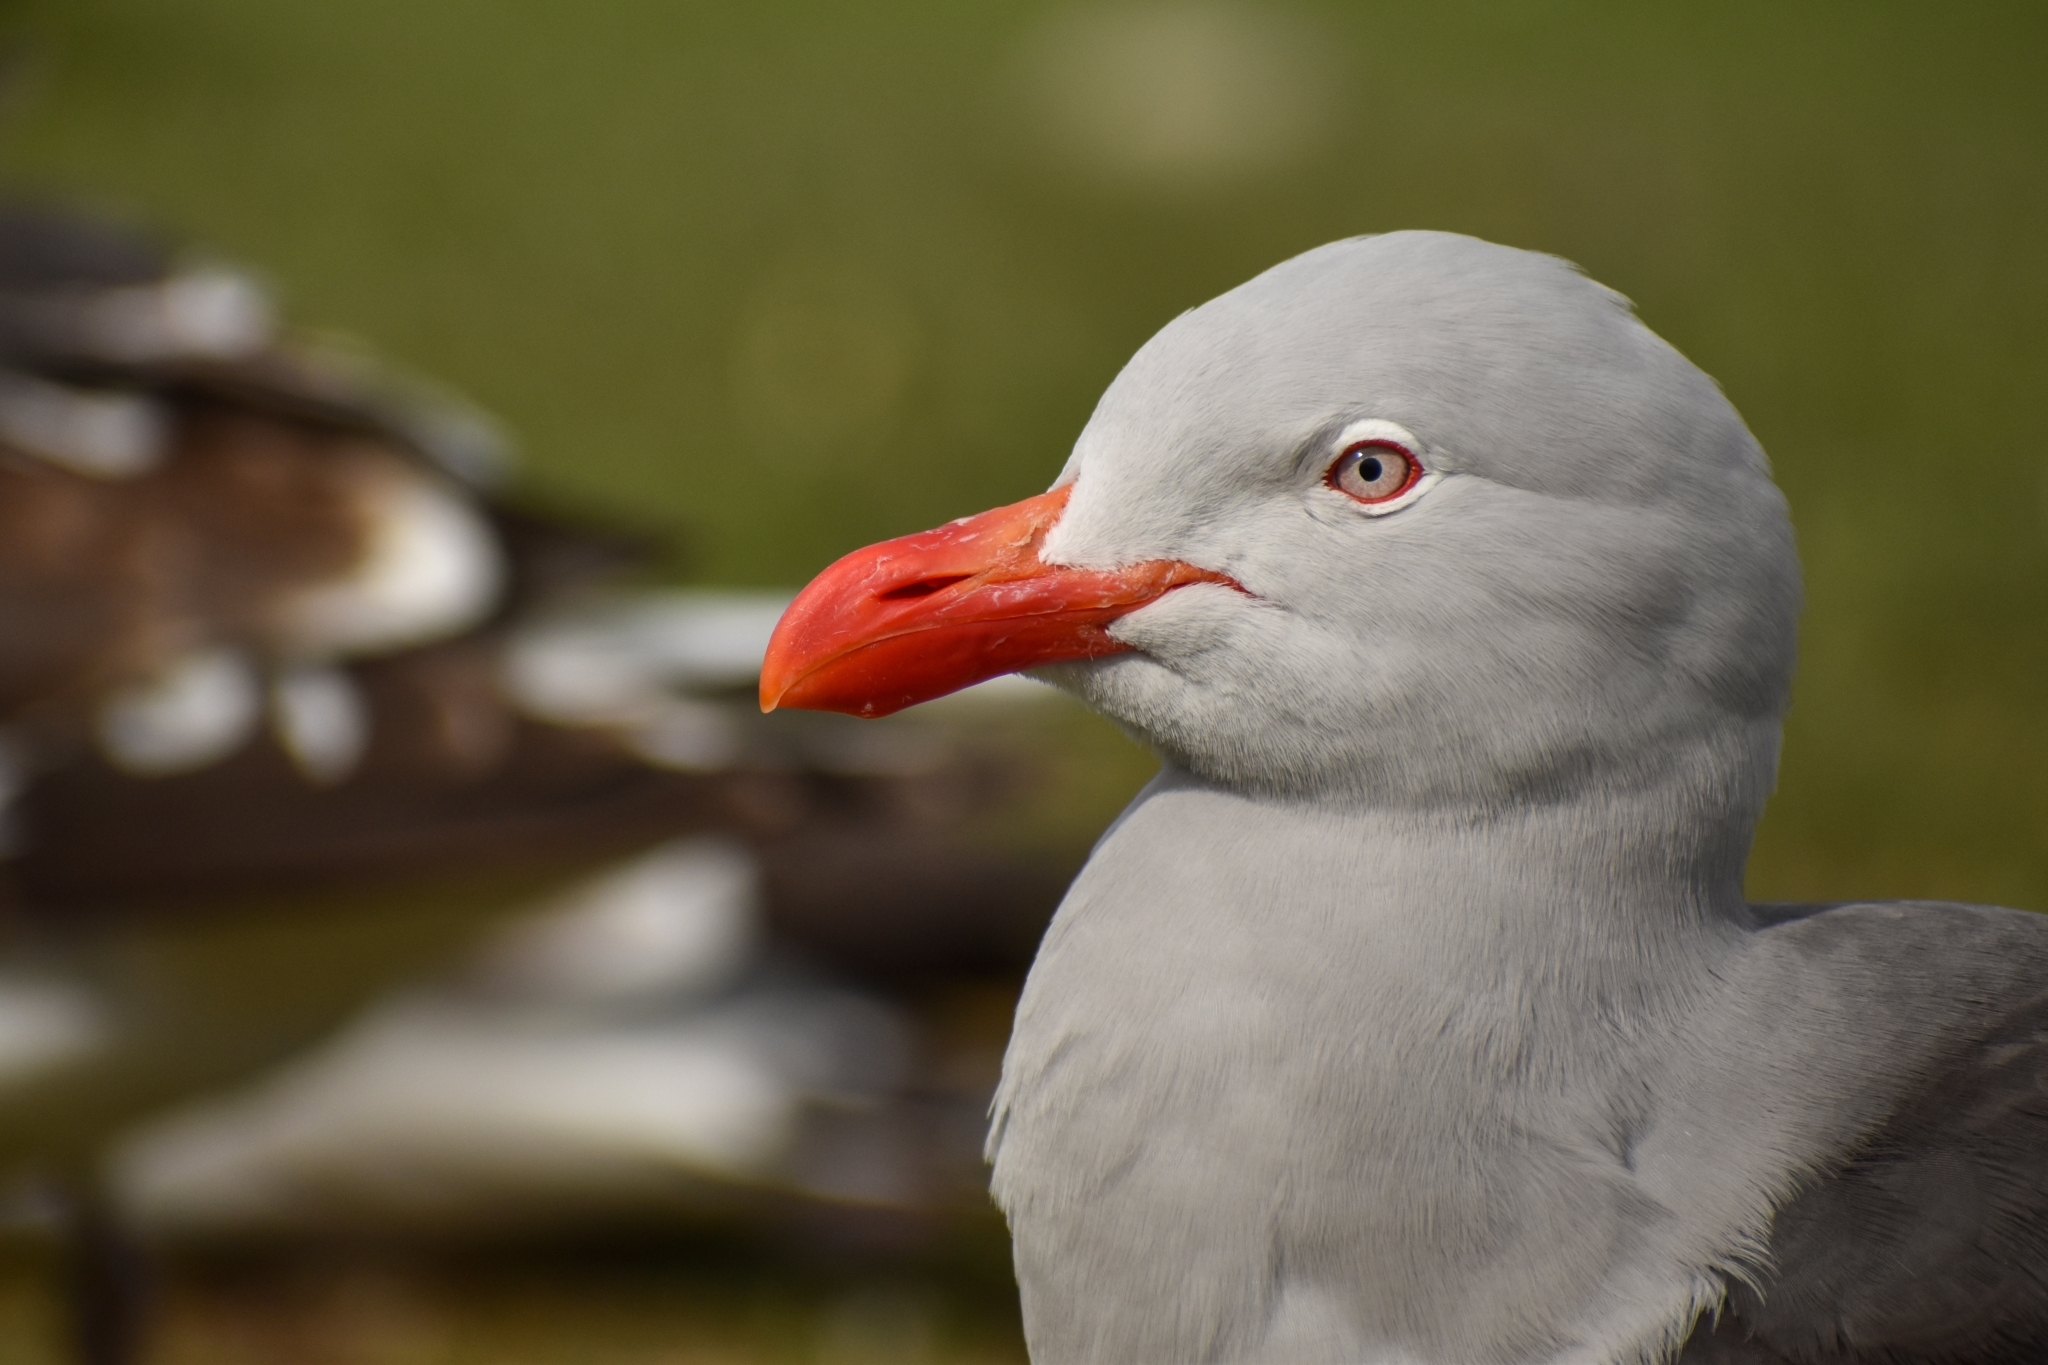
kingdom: Animalia
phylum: Chordata
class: Aves
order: Charadriiformes
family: Laridae
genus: Leucophaeus
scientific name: Leucophaeus scoresbii
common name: Dolphin gull
